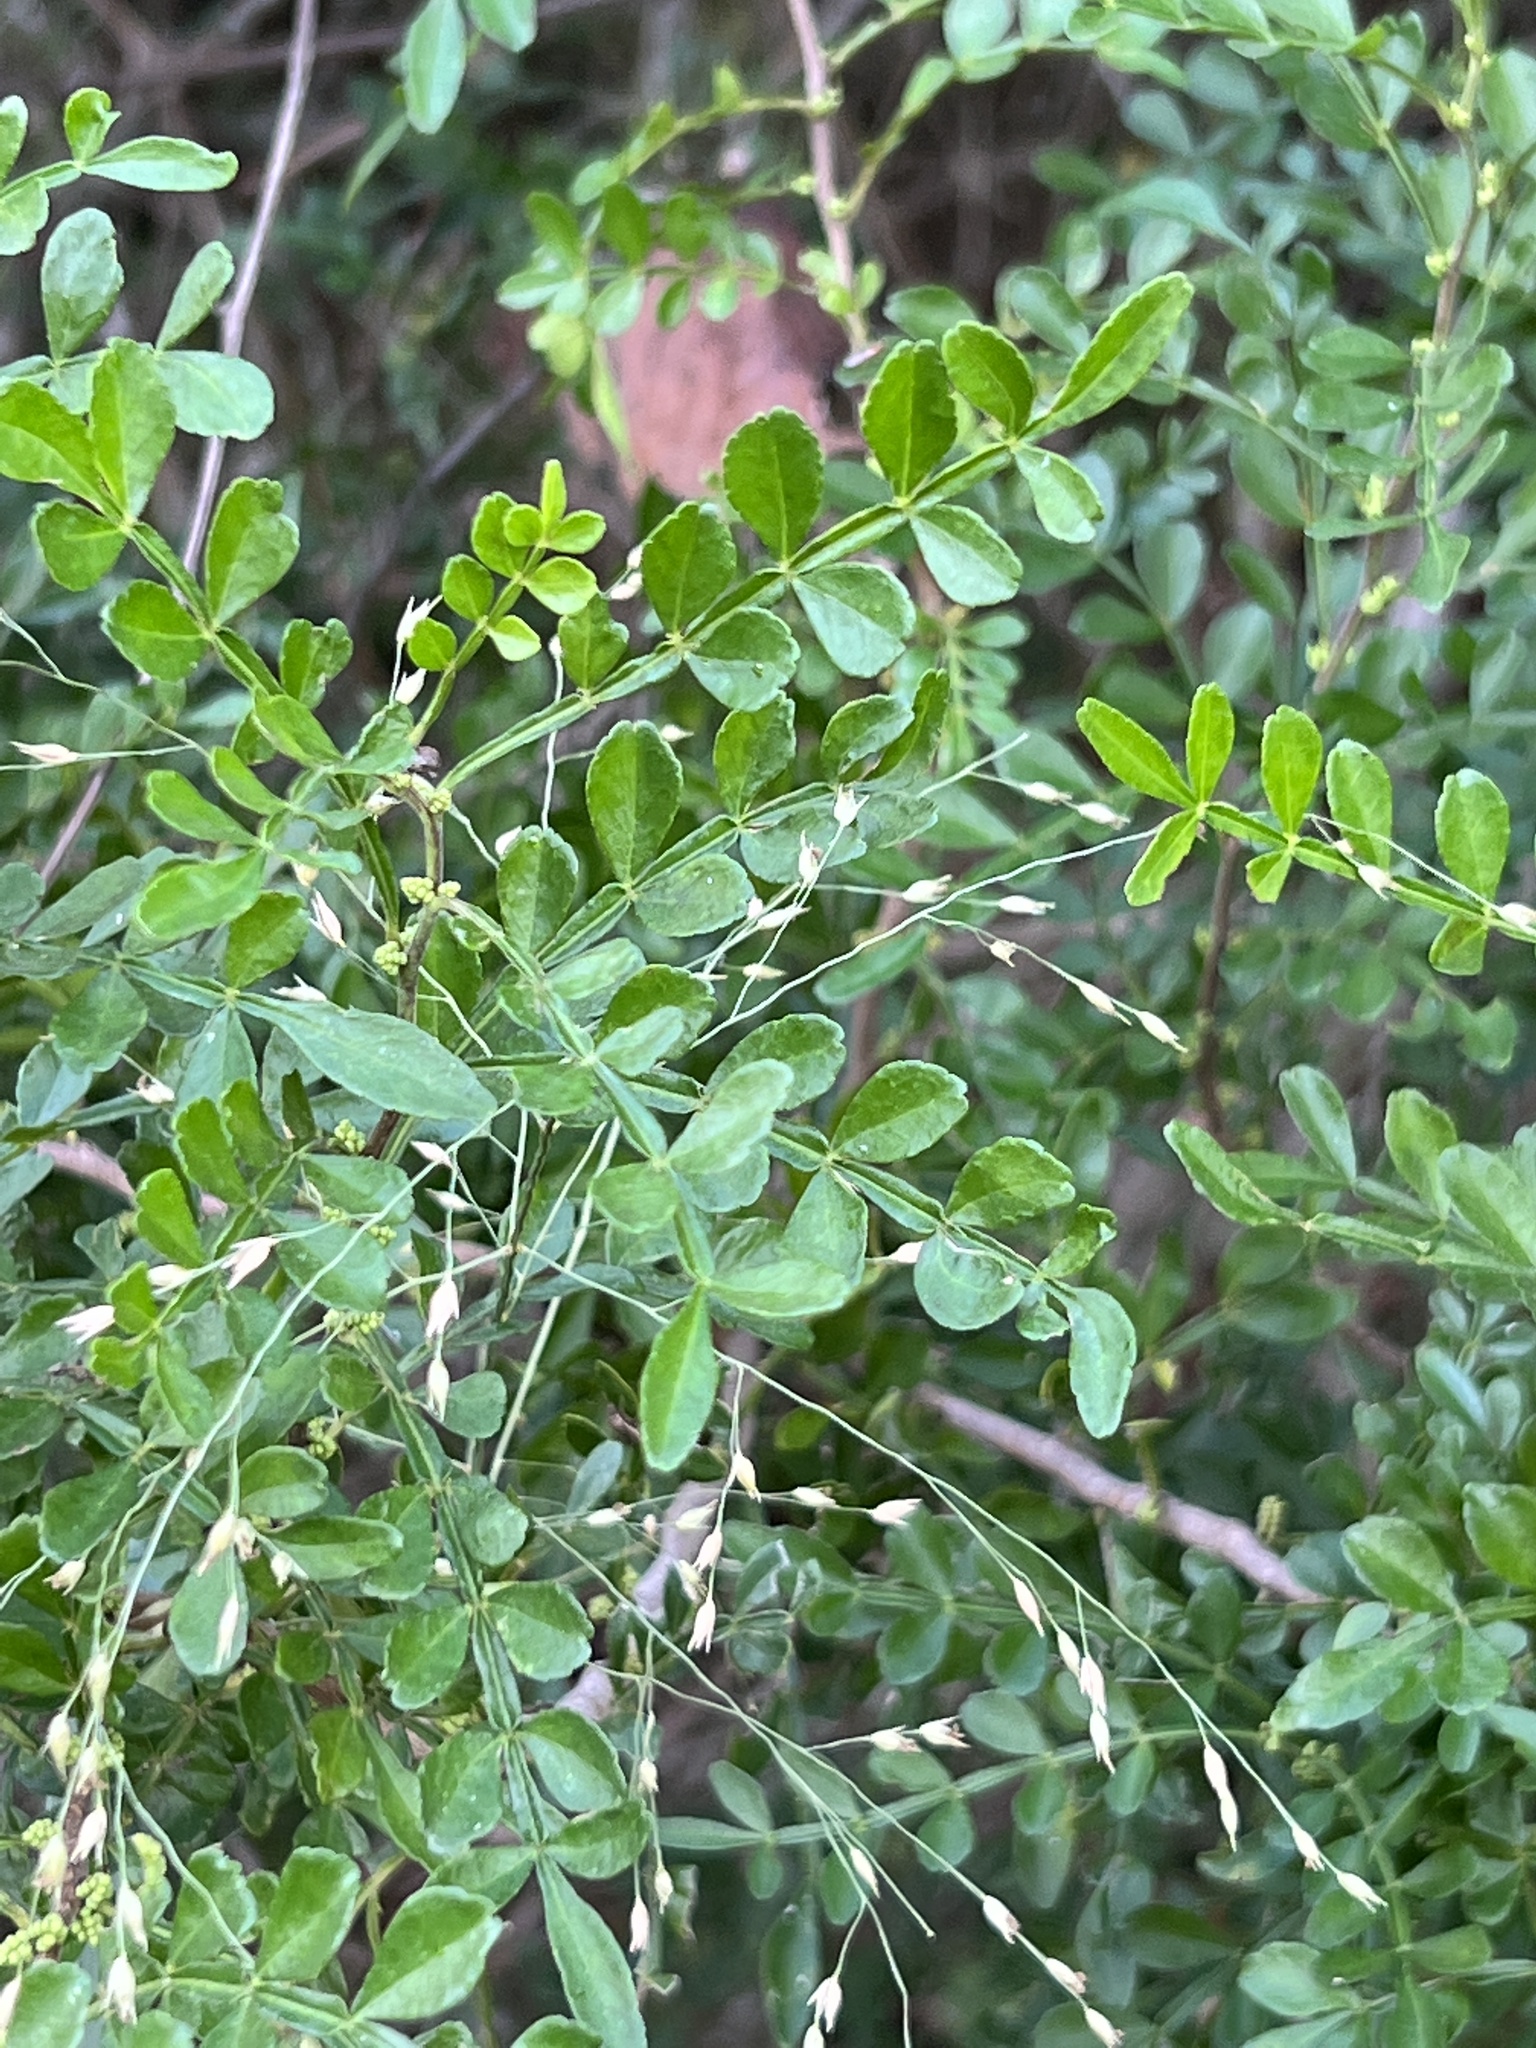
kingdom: Plantae
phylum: Tracheophyta
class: Magnoliopsida
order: Sapindales
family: Rutaceae
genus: Zanthoxylum
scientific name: Zanthoxylum fagara
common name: Lime prickly-ash
